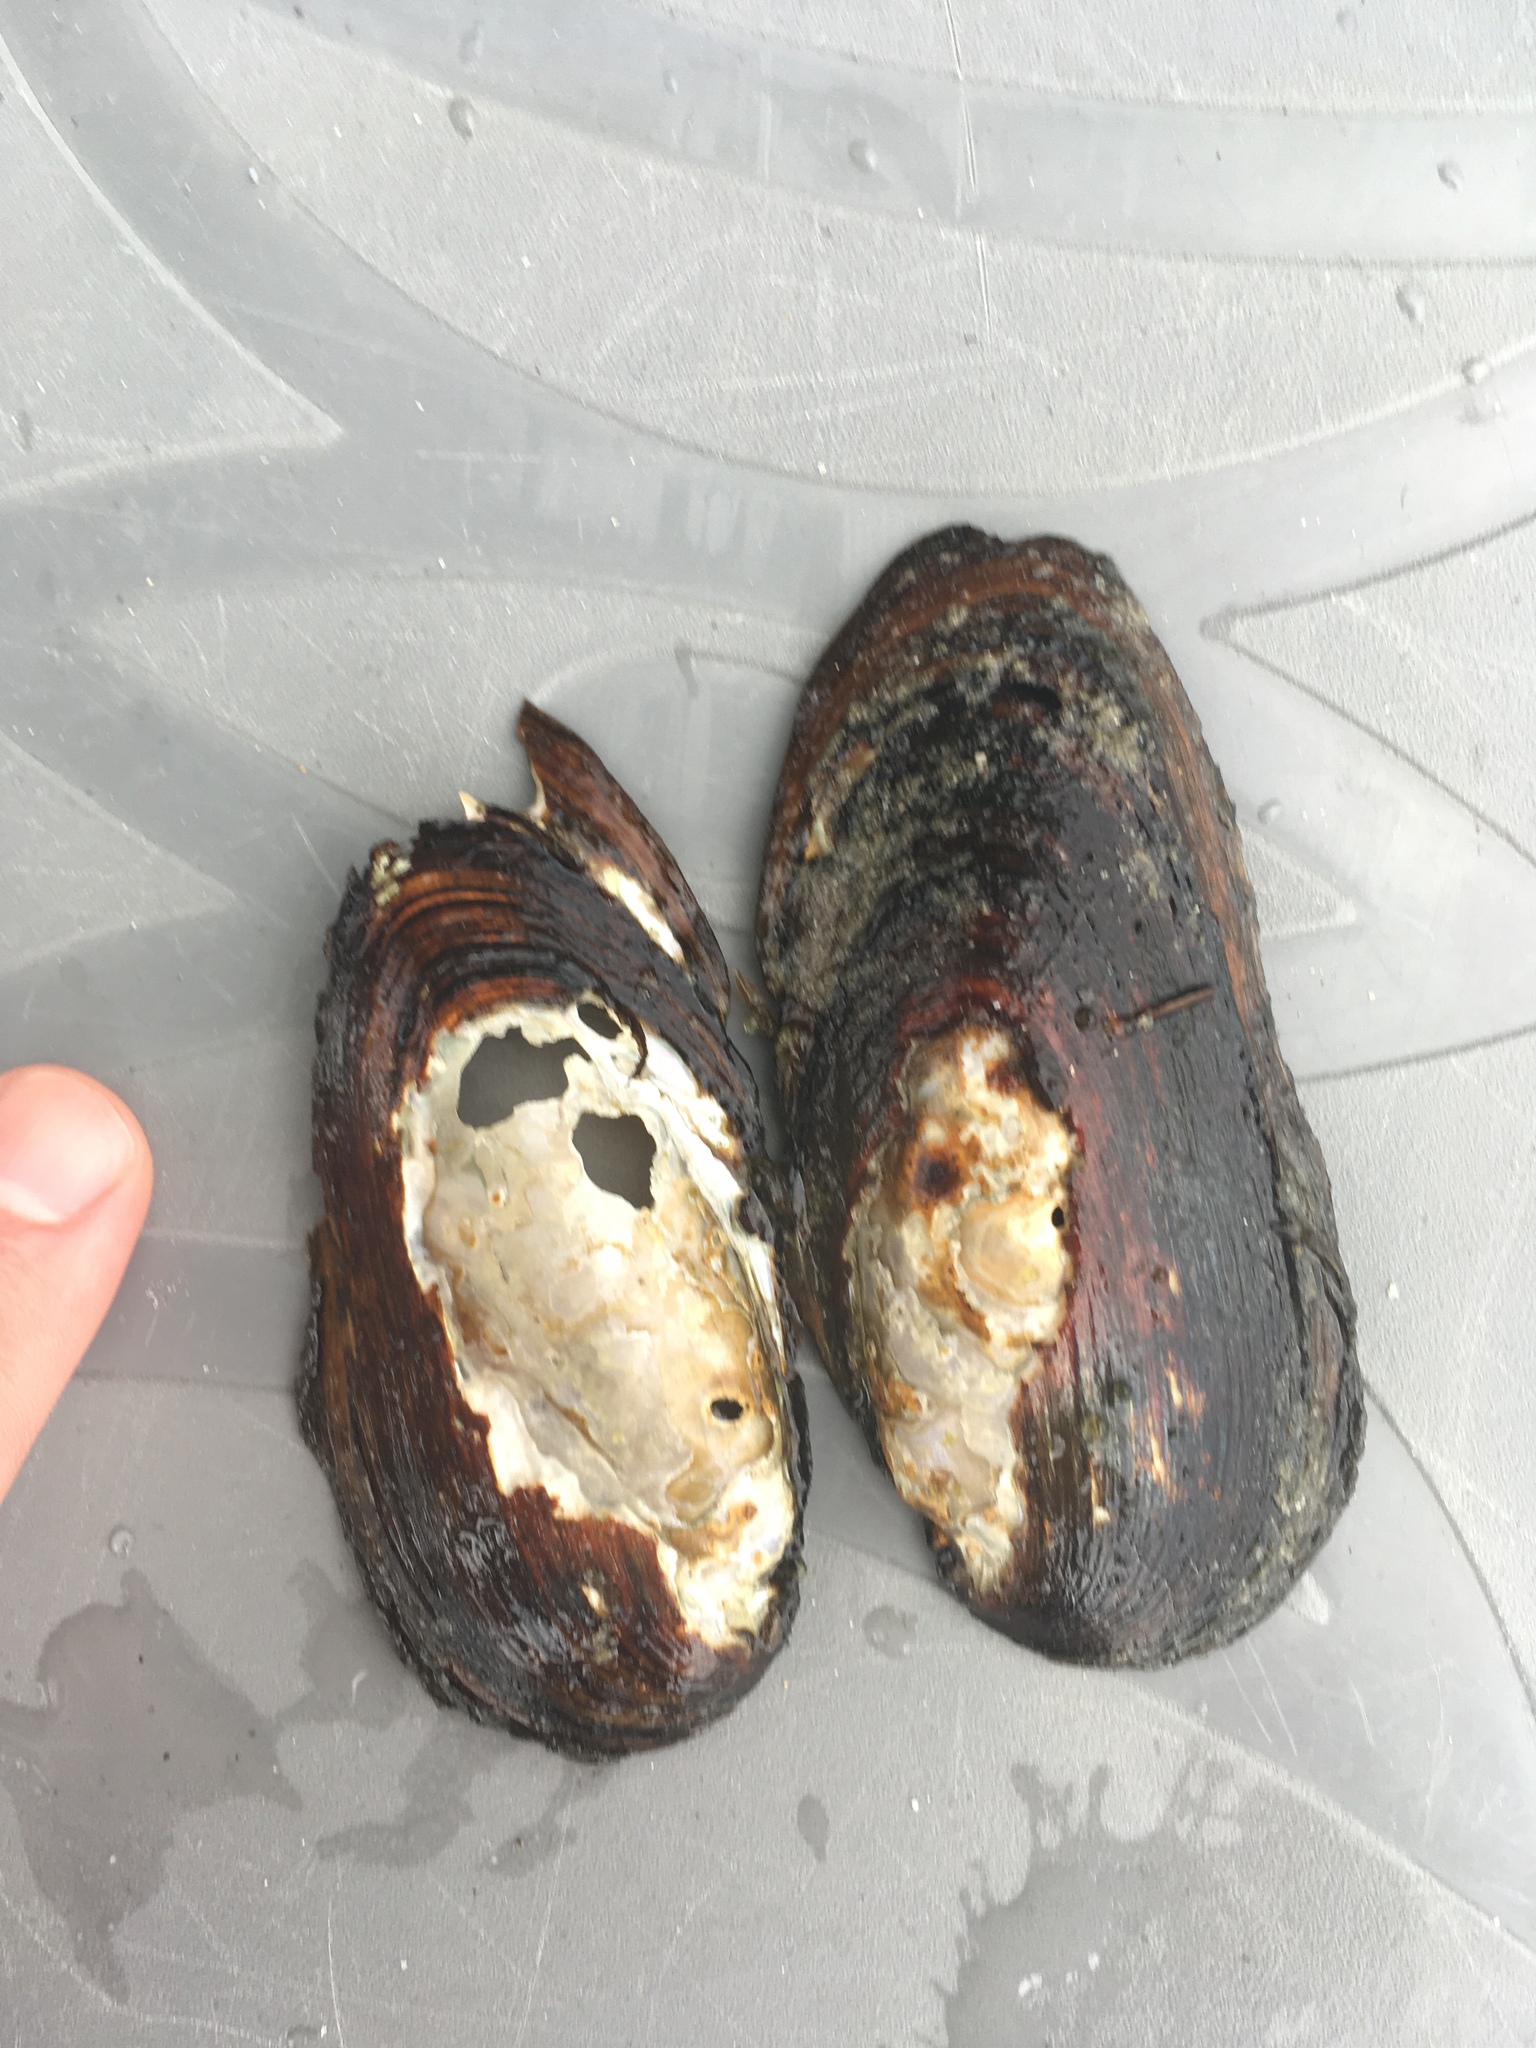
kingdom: Animalia
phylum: Mollusca
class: Bivalvia
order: Unionida
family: Unionidae
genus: Elliptio
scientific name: Elliptio complanata
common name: Eastern elliptio
